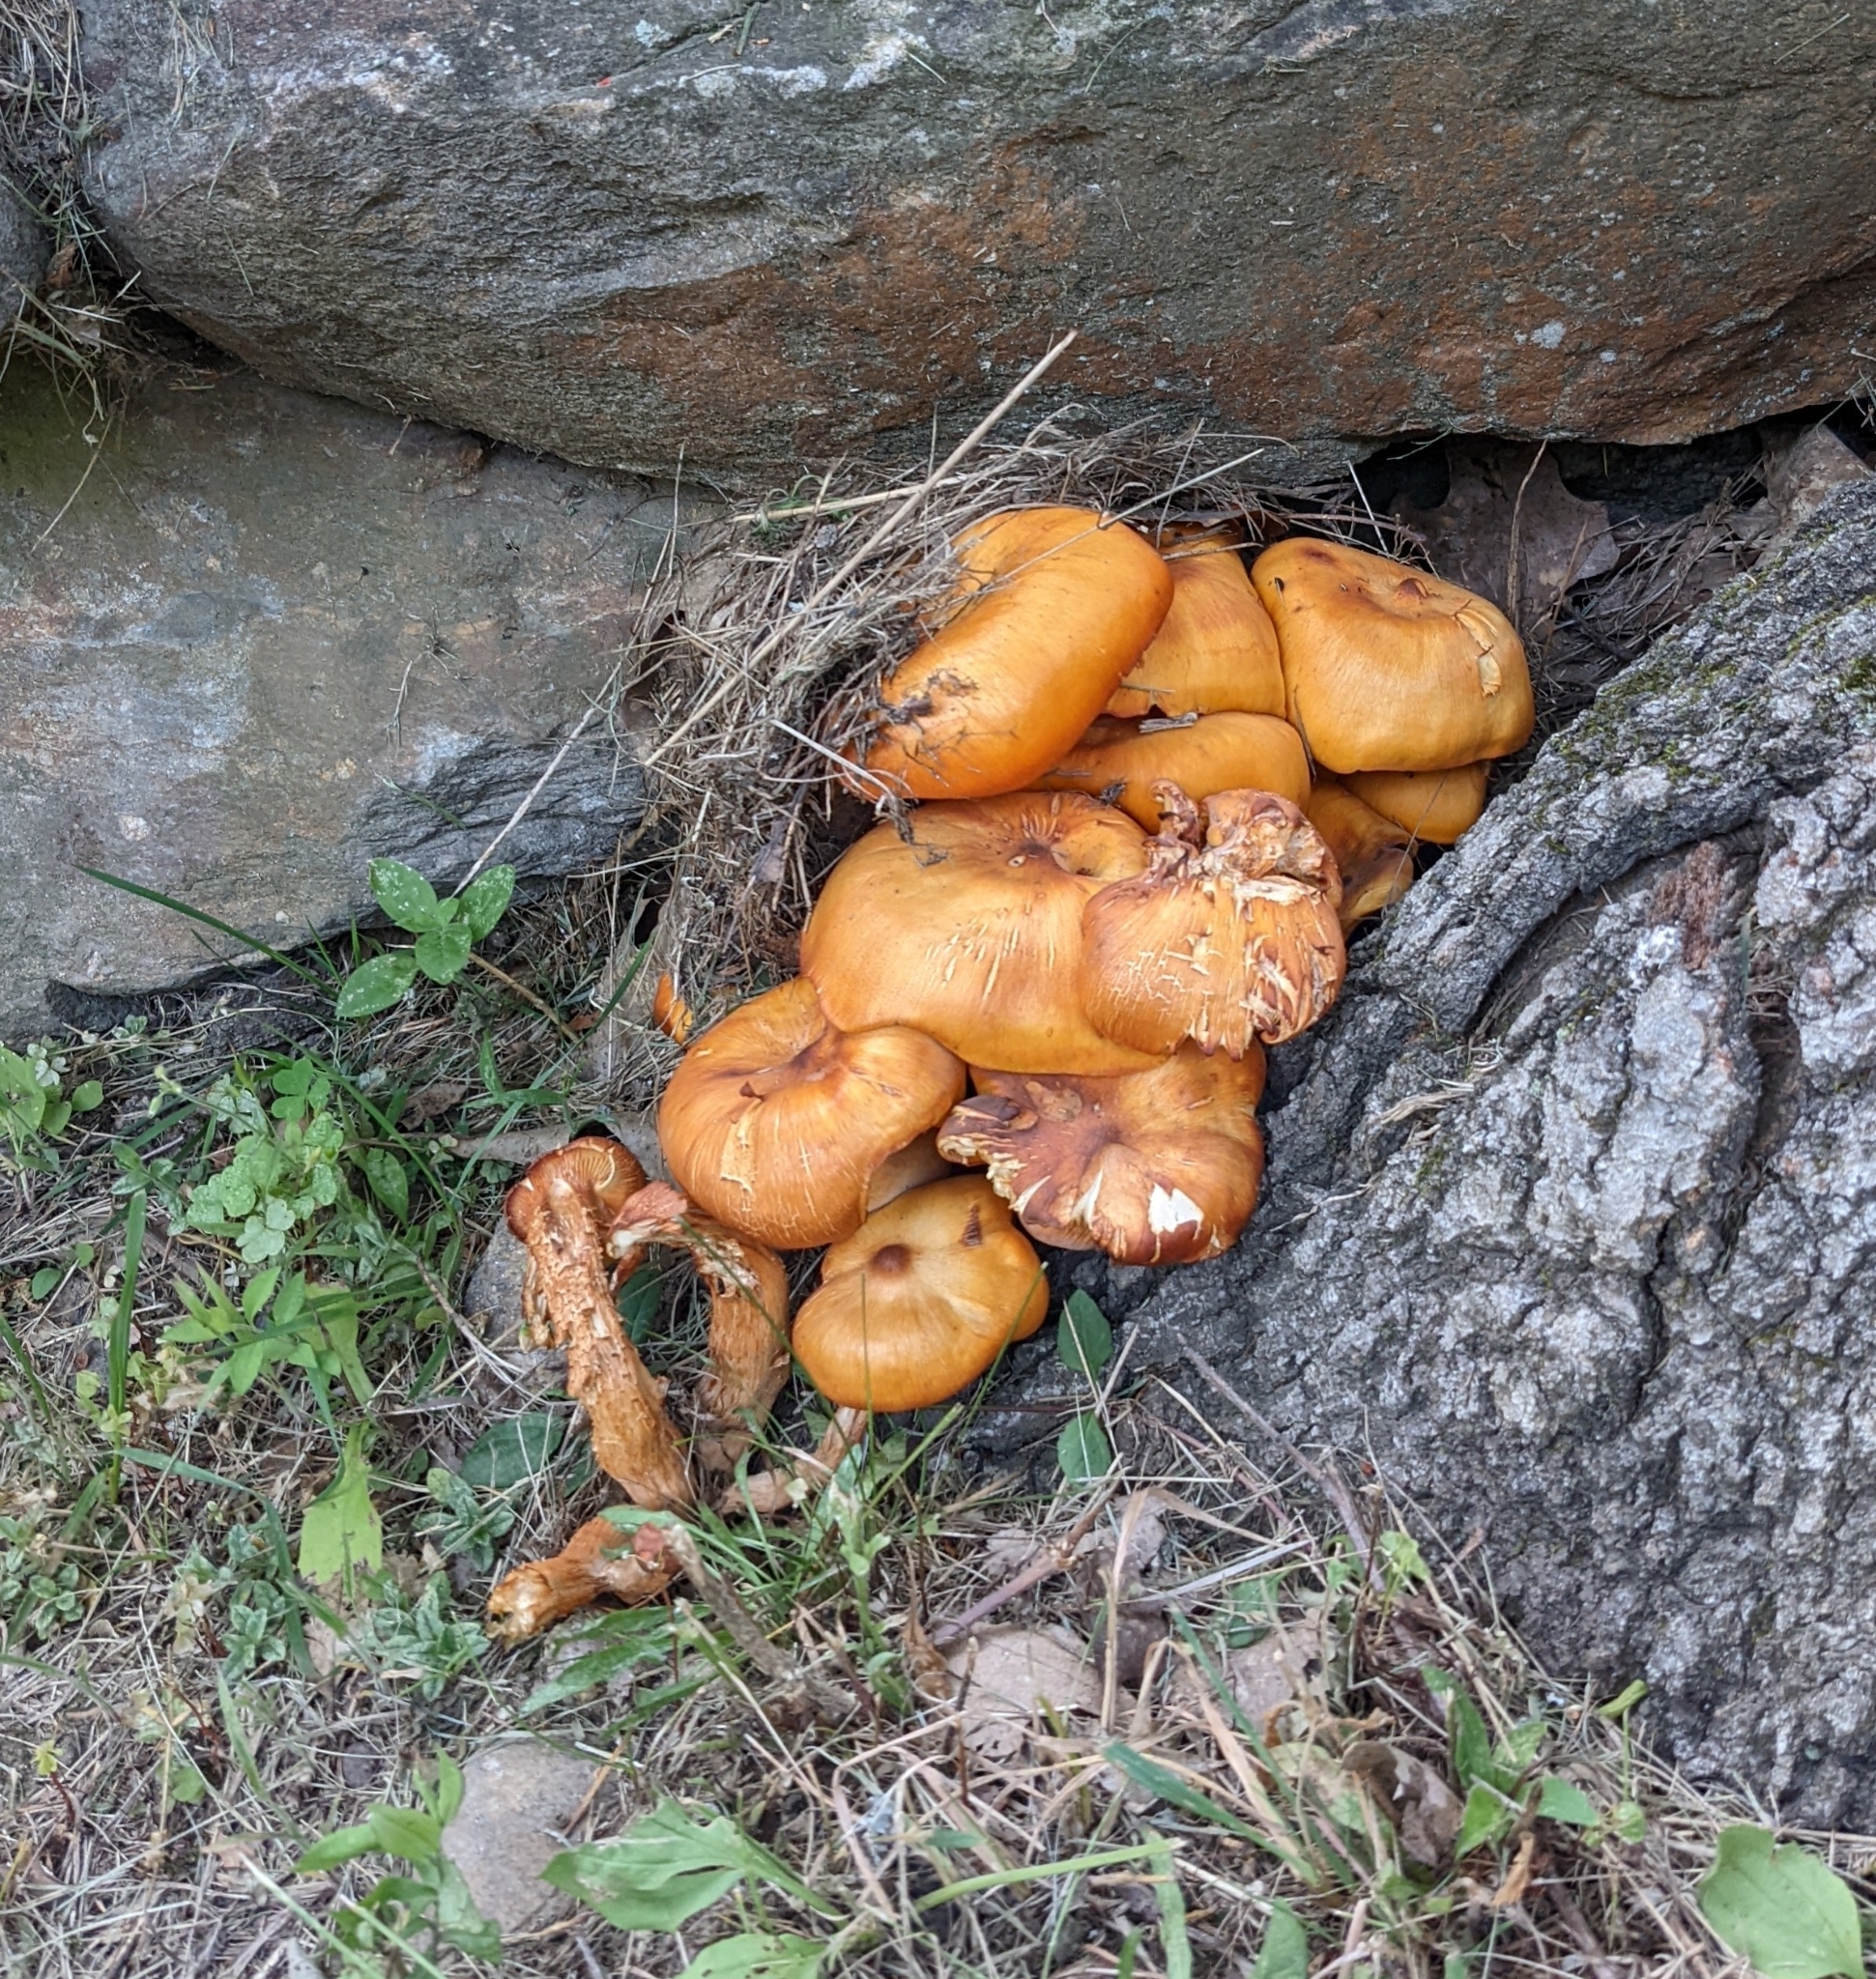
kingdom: Fungi
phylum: Basidiomycota
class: Agaricomycetes
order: Agaricales
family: Omphalotaceae
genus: Omphalotus
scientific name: Omphalotus illudens
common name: Jack o lantern
